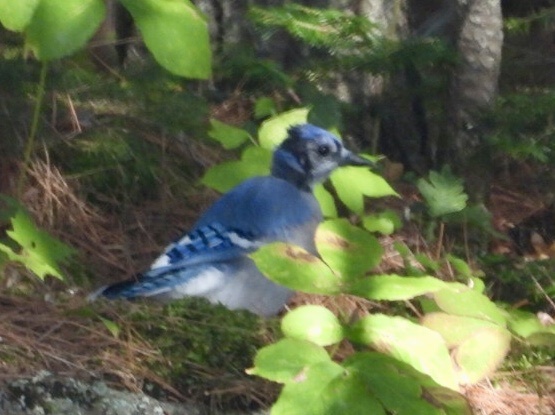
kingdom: Animalia
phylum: Chordata
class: Aves
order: Passeriformes
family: Corvidae
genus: Cyanocitta
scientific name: Cyanocitta cristata
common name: Blue jay
